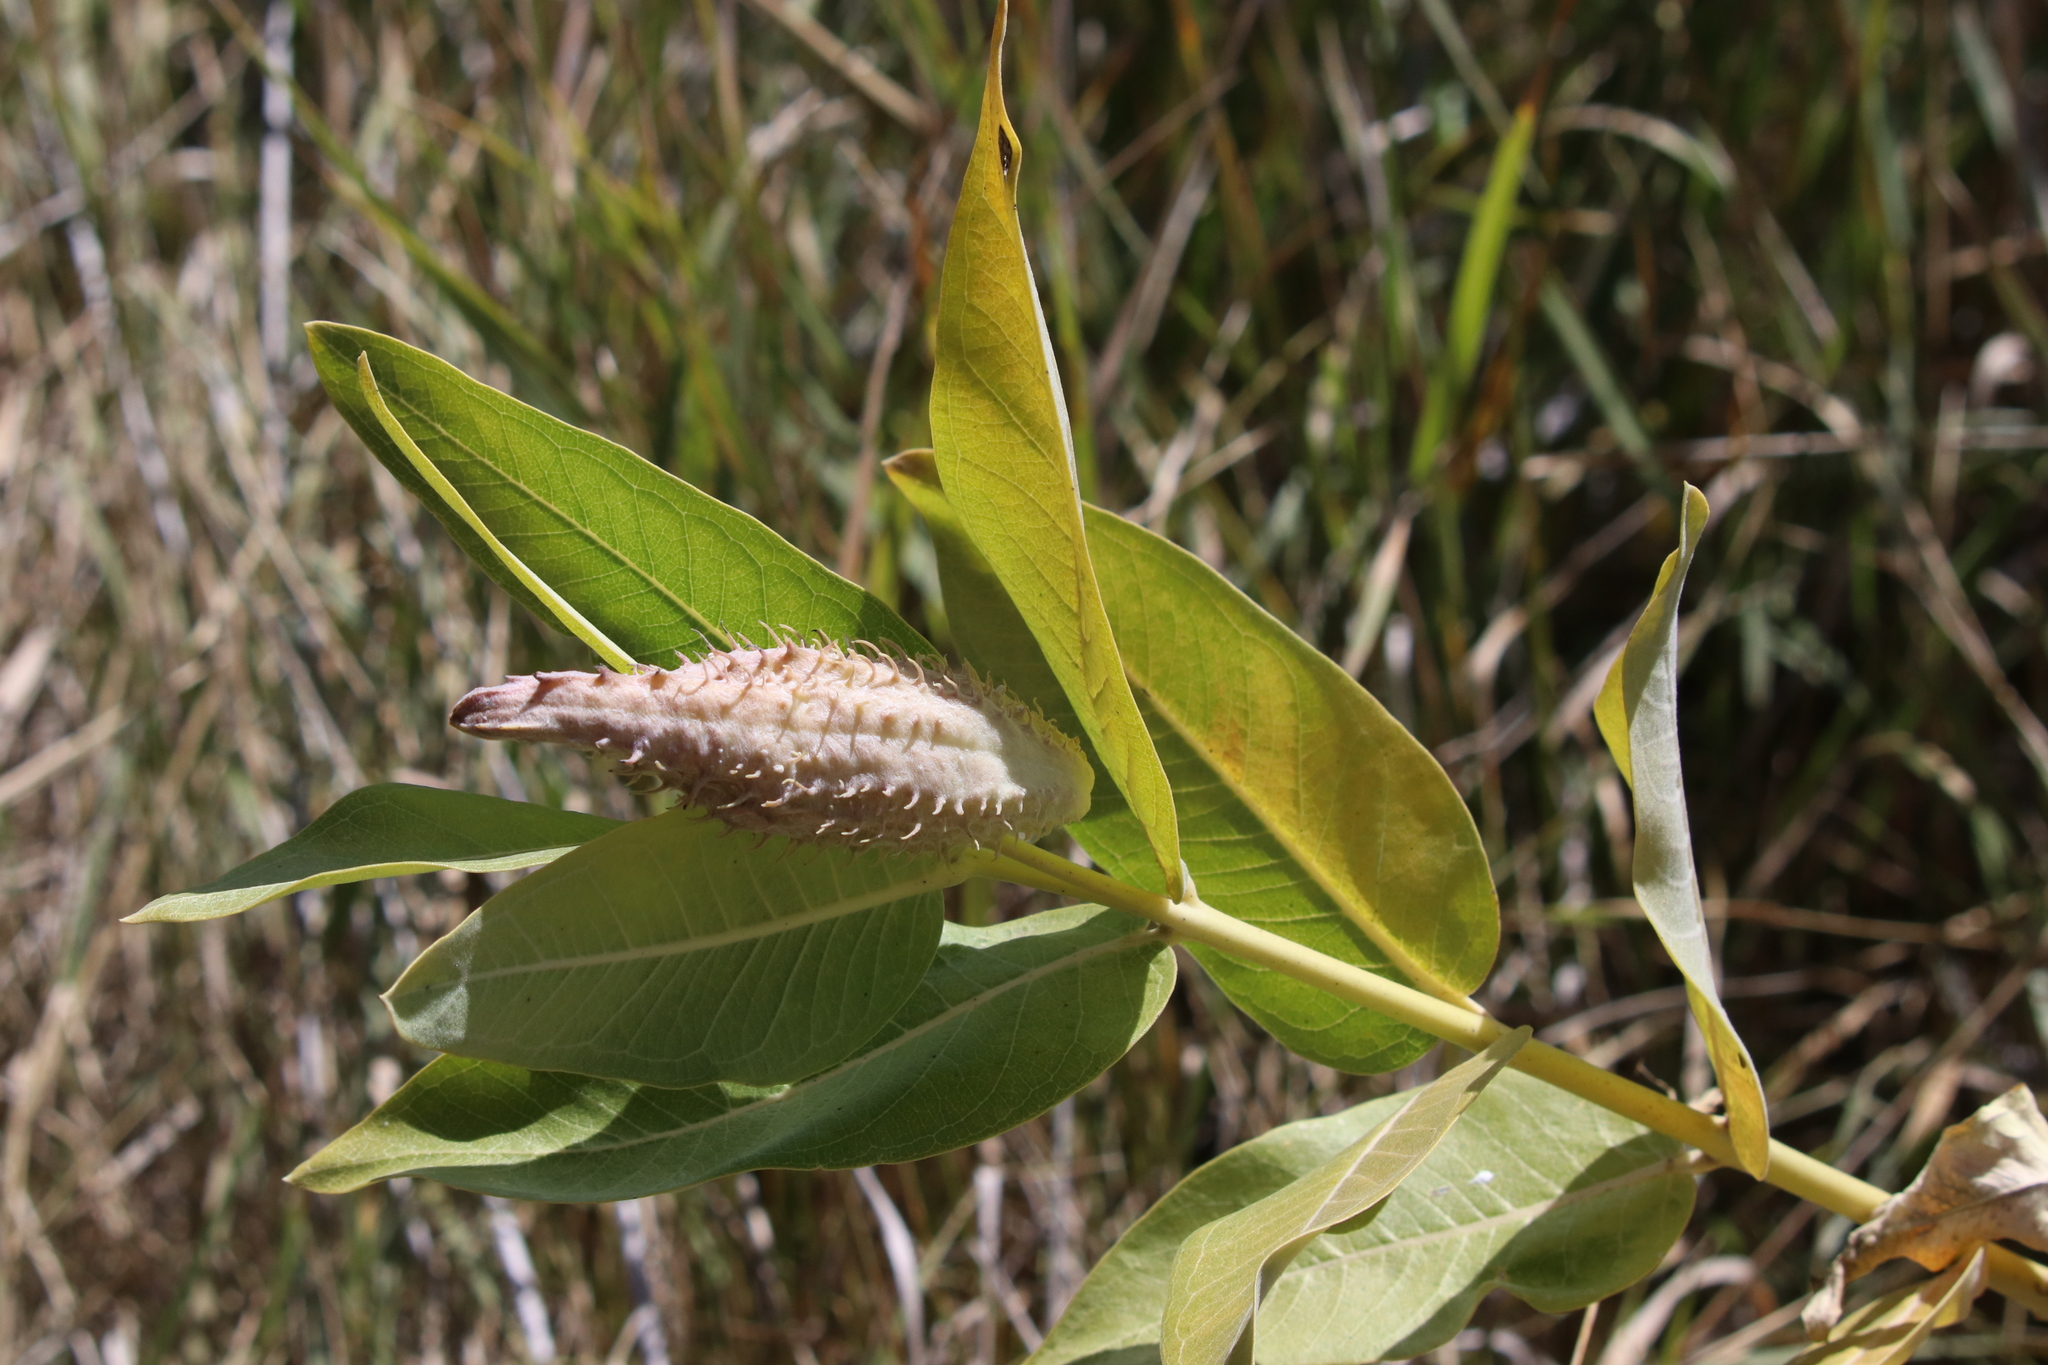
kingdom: Plantae
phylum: Tracheophyta
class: Magnoliopsida
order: Gentianales
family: Apocynaceae
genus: Asclepias
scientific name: Asclepias speciosa
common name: Showy milkweed
